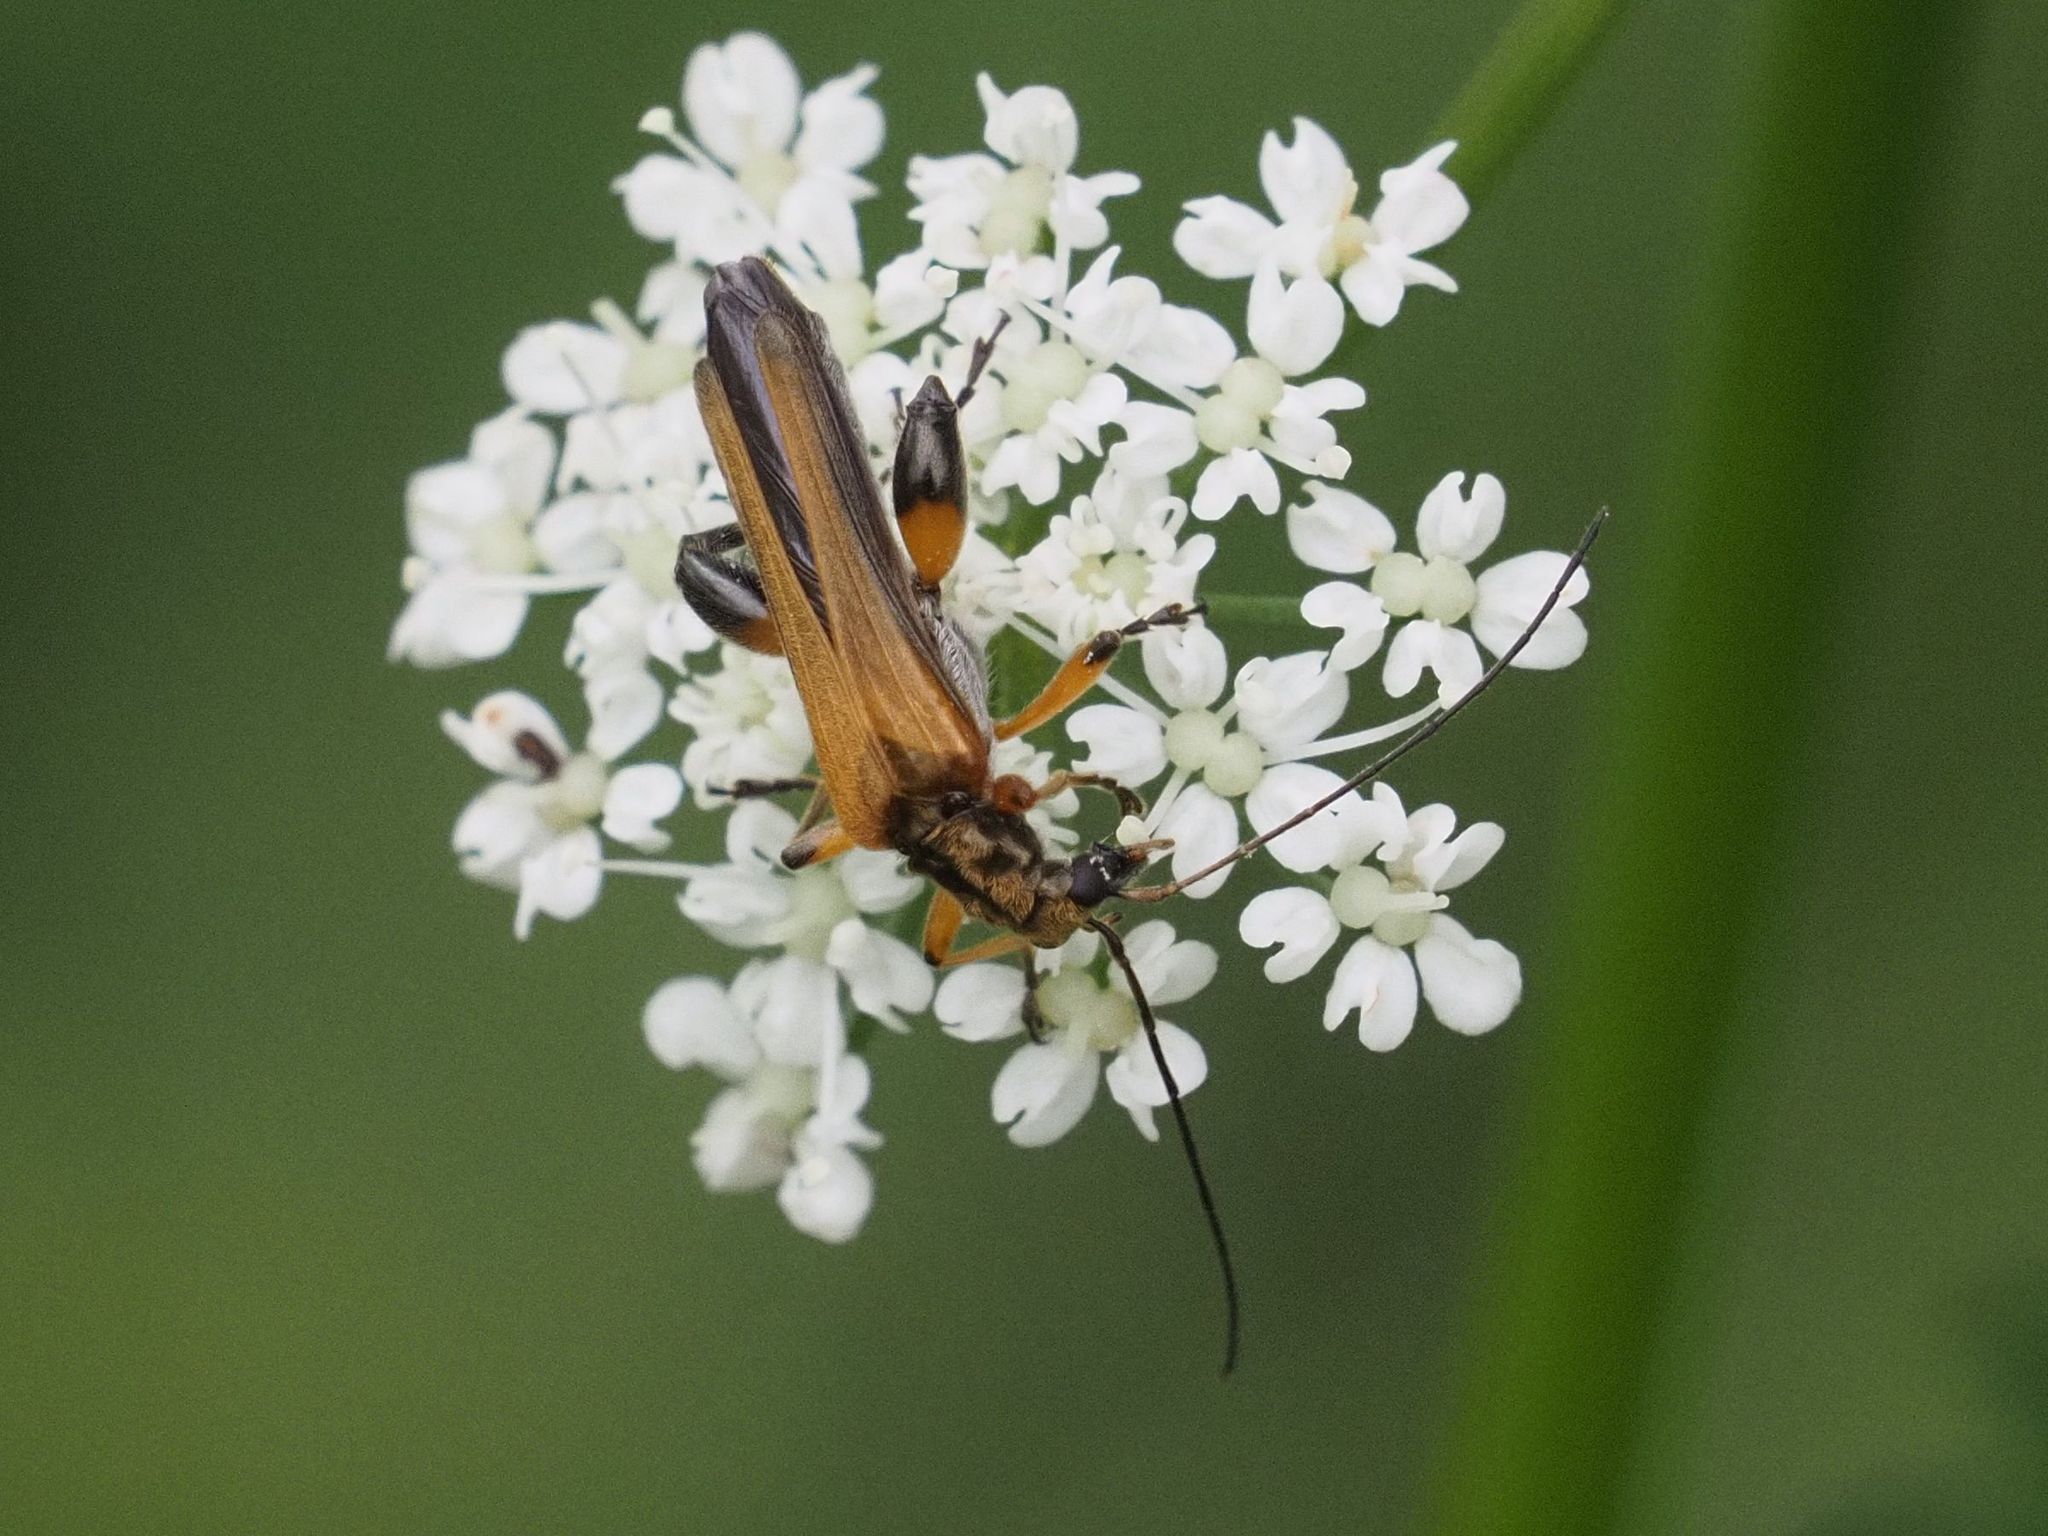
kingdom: Animalia
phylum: Arthropoda
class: Insecta
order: Coleoptera
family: Oedemeridae
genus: Oedemera
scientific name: Oedemera podagrariae
